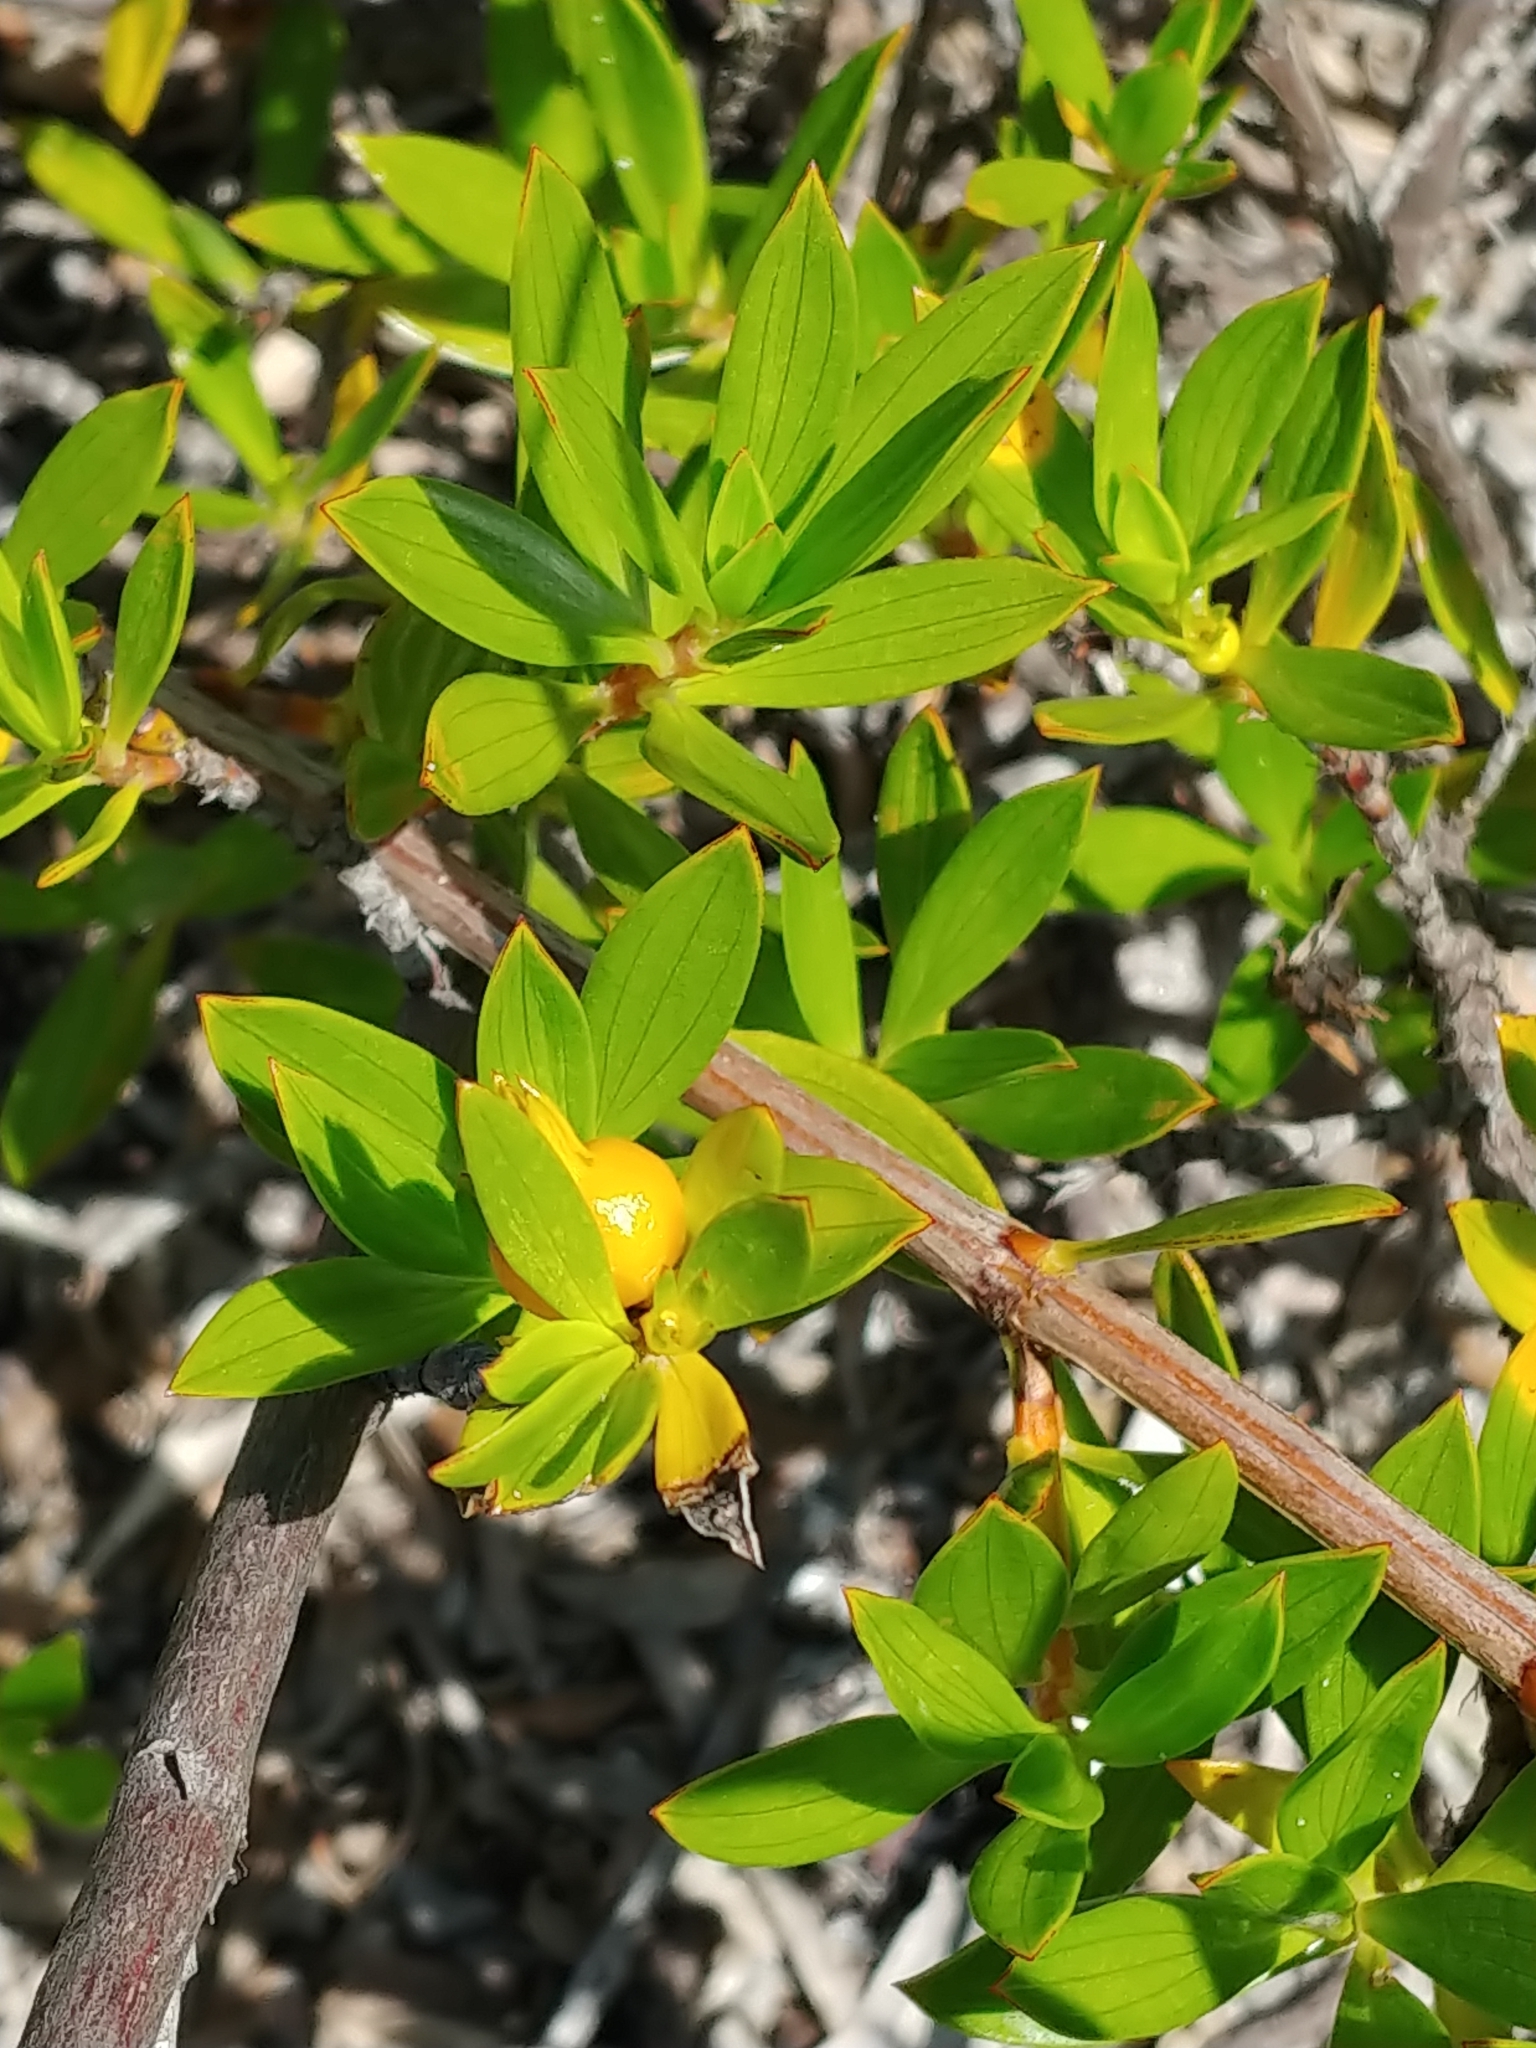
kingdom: Plantae
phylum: Tracheophyta
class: Magnoliopsida
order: Gentianales
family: Rubiaceae
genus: Ernodea
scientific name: Ernodea littoralis
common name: Beach creeper
